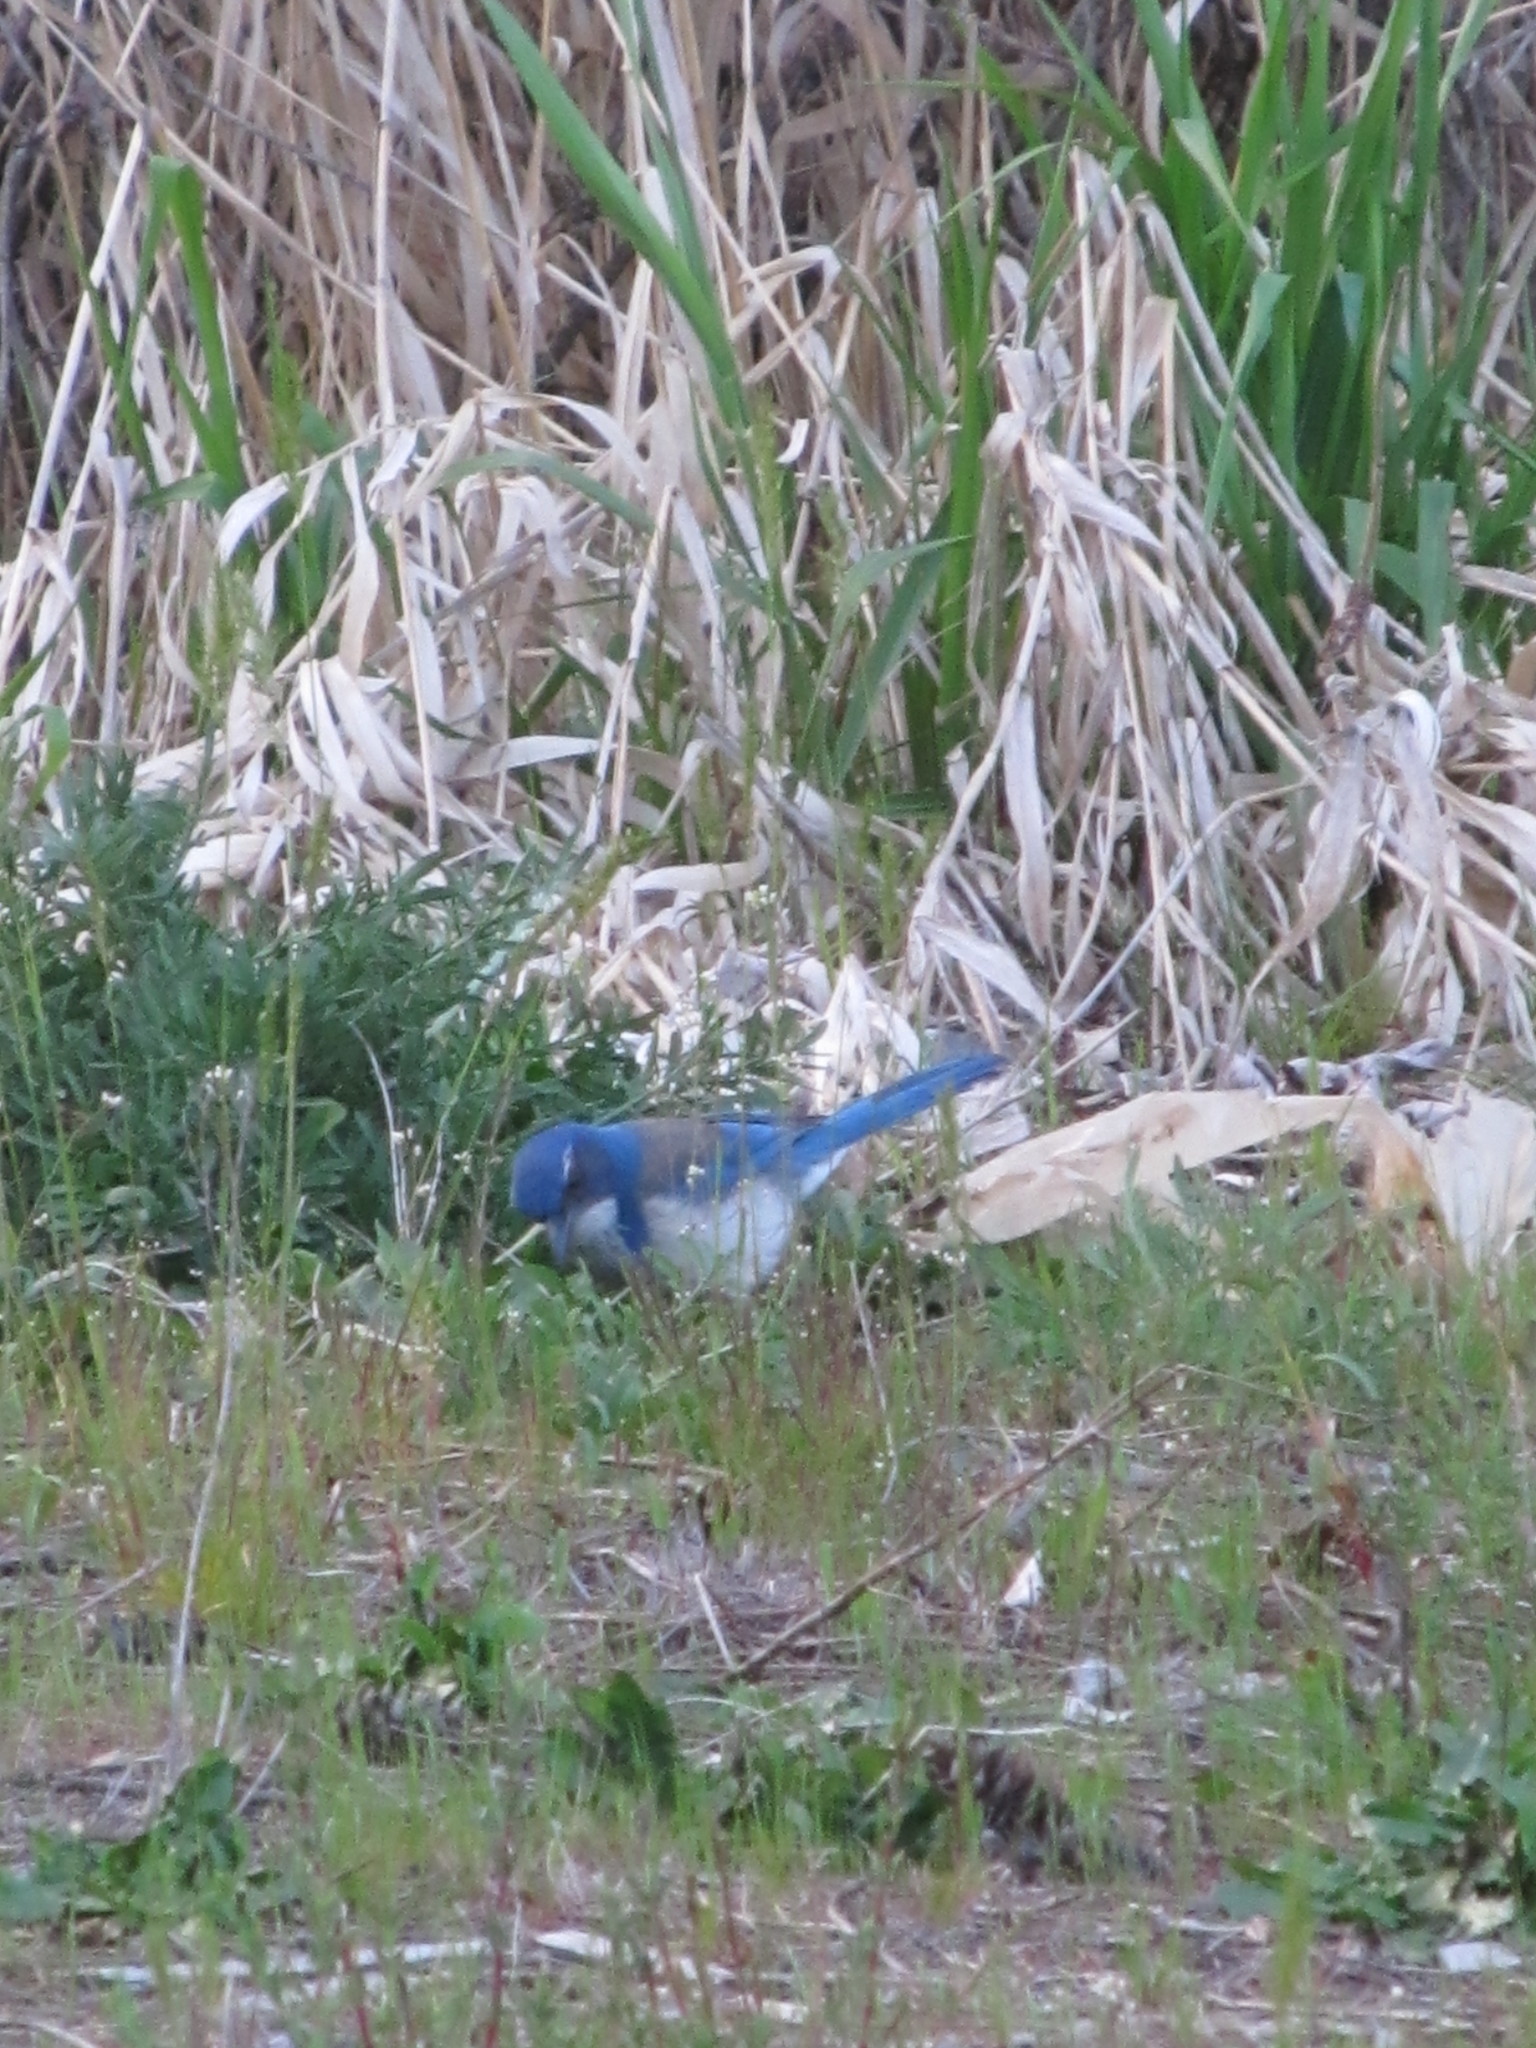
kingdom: Animalia
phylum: Chordata
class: Aves
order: Passeriformes
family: Corvidae
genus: Aphelocoma
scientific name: Aphelocoma californica
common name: California scrub-jay
